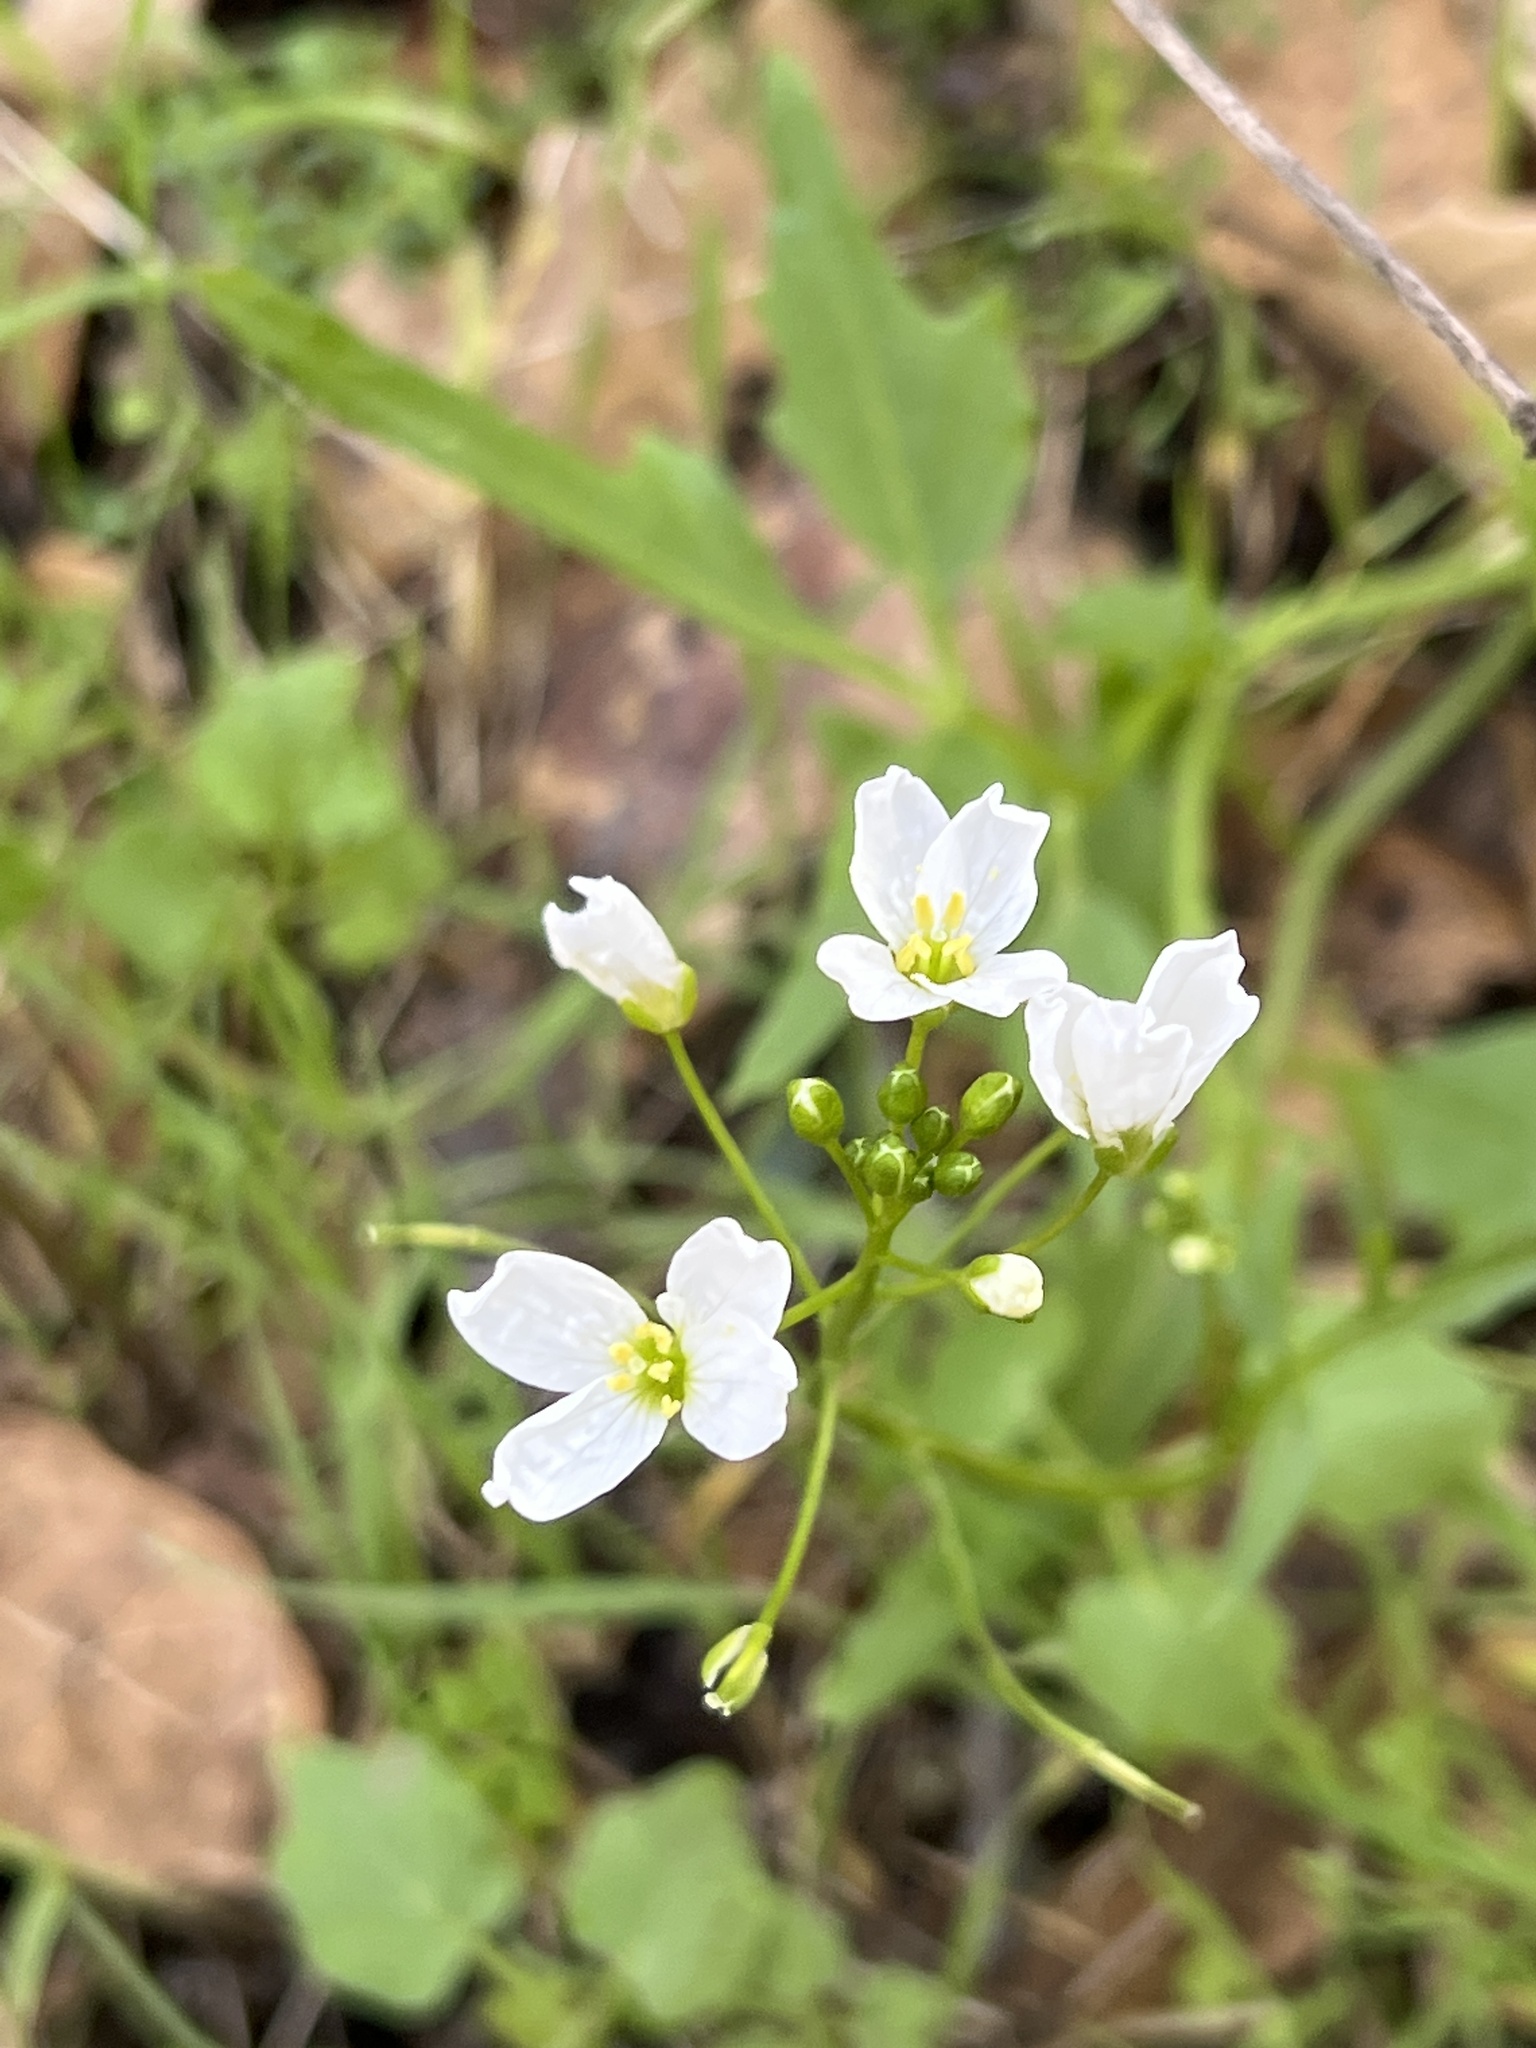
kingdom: Plantae
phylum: Tracheophyta
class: Magnoliopsida
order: Brassicales
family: Brassicaceae
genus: Cardamine
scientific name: Cardamine californica
